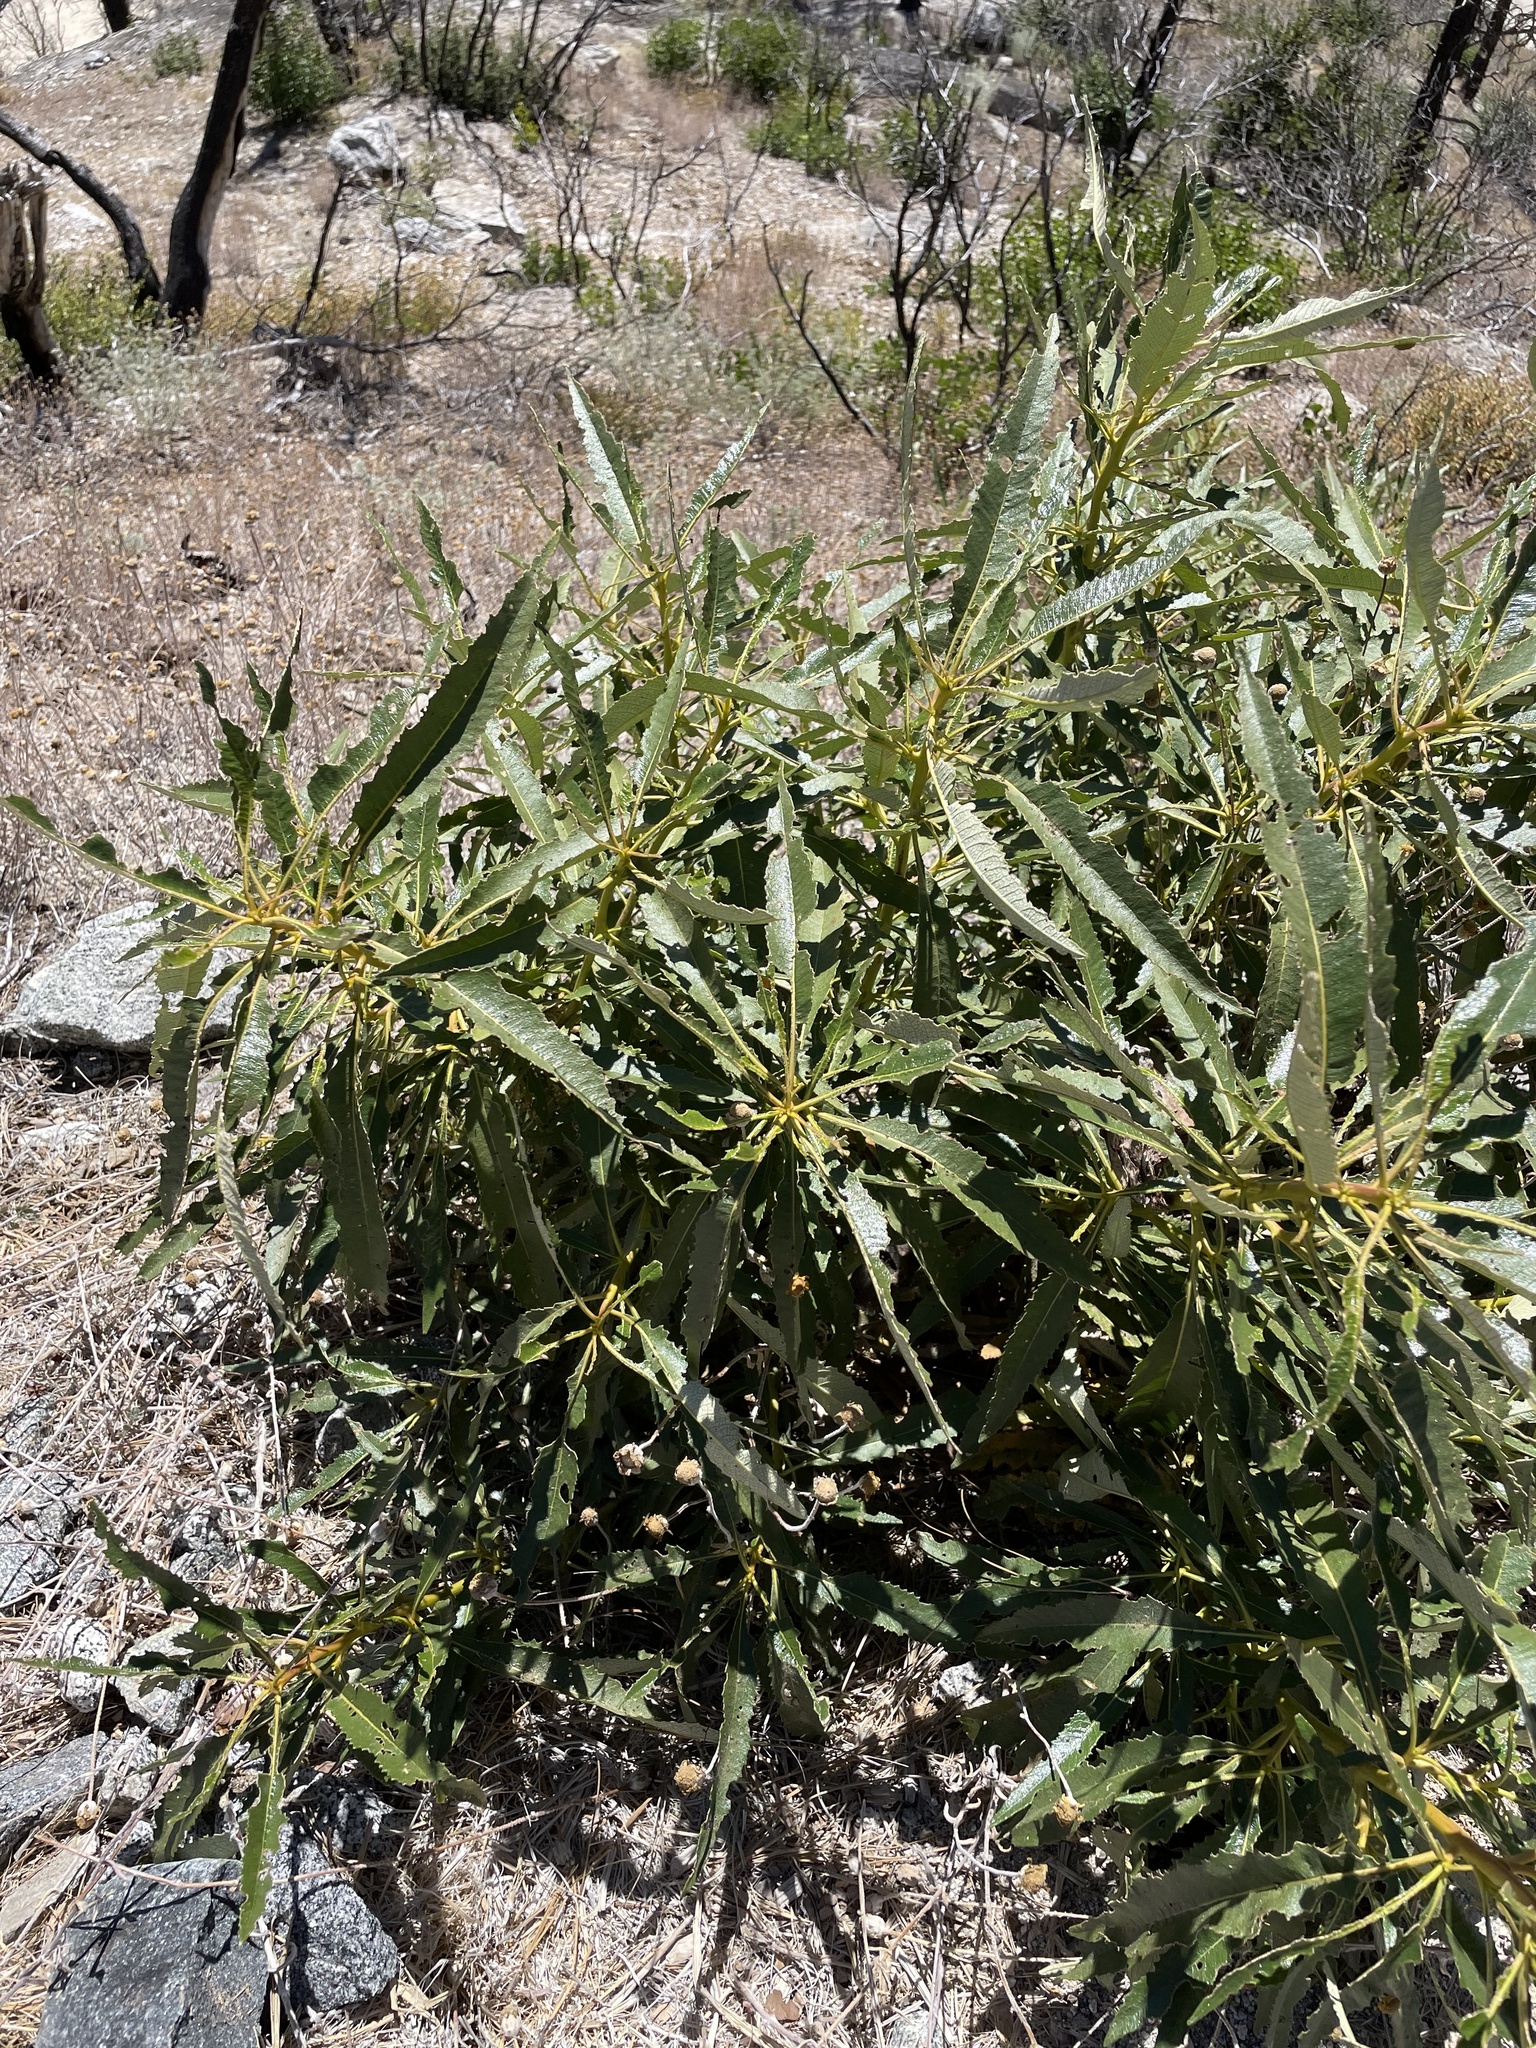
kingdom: Plantae
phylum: Tracheophyta
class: Magnoliopsida
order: Boraginales
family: Namaceae
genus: Eriodictyon
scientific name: Eriodictyon californicum
